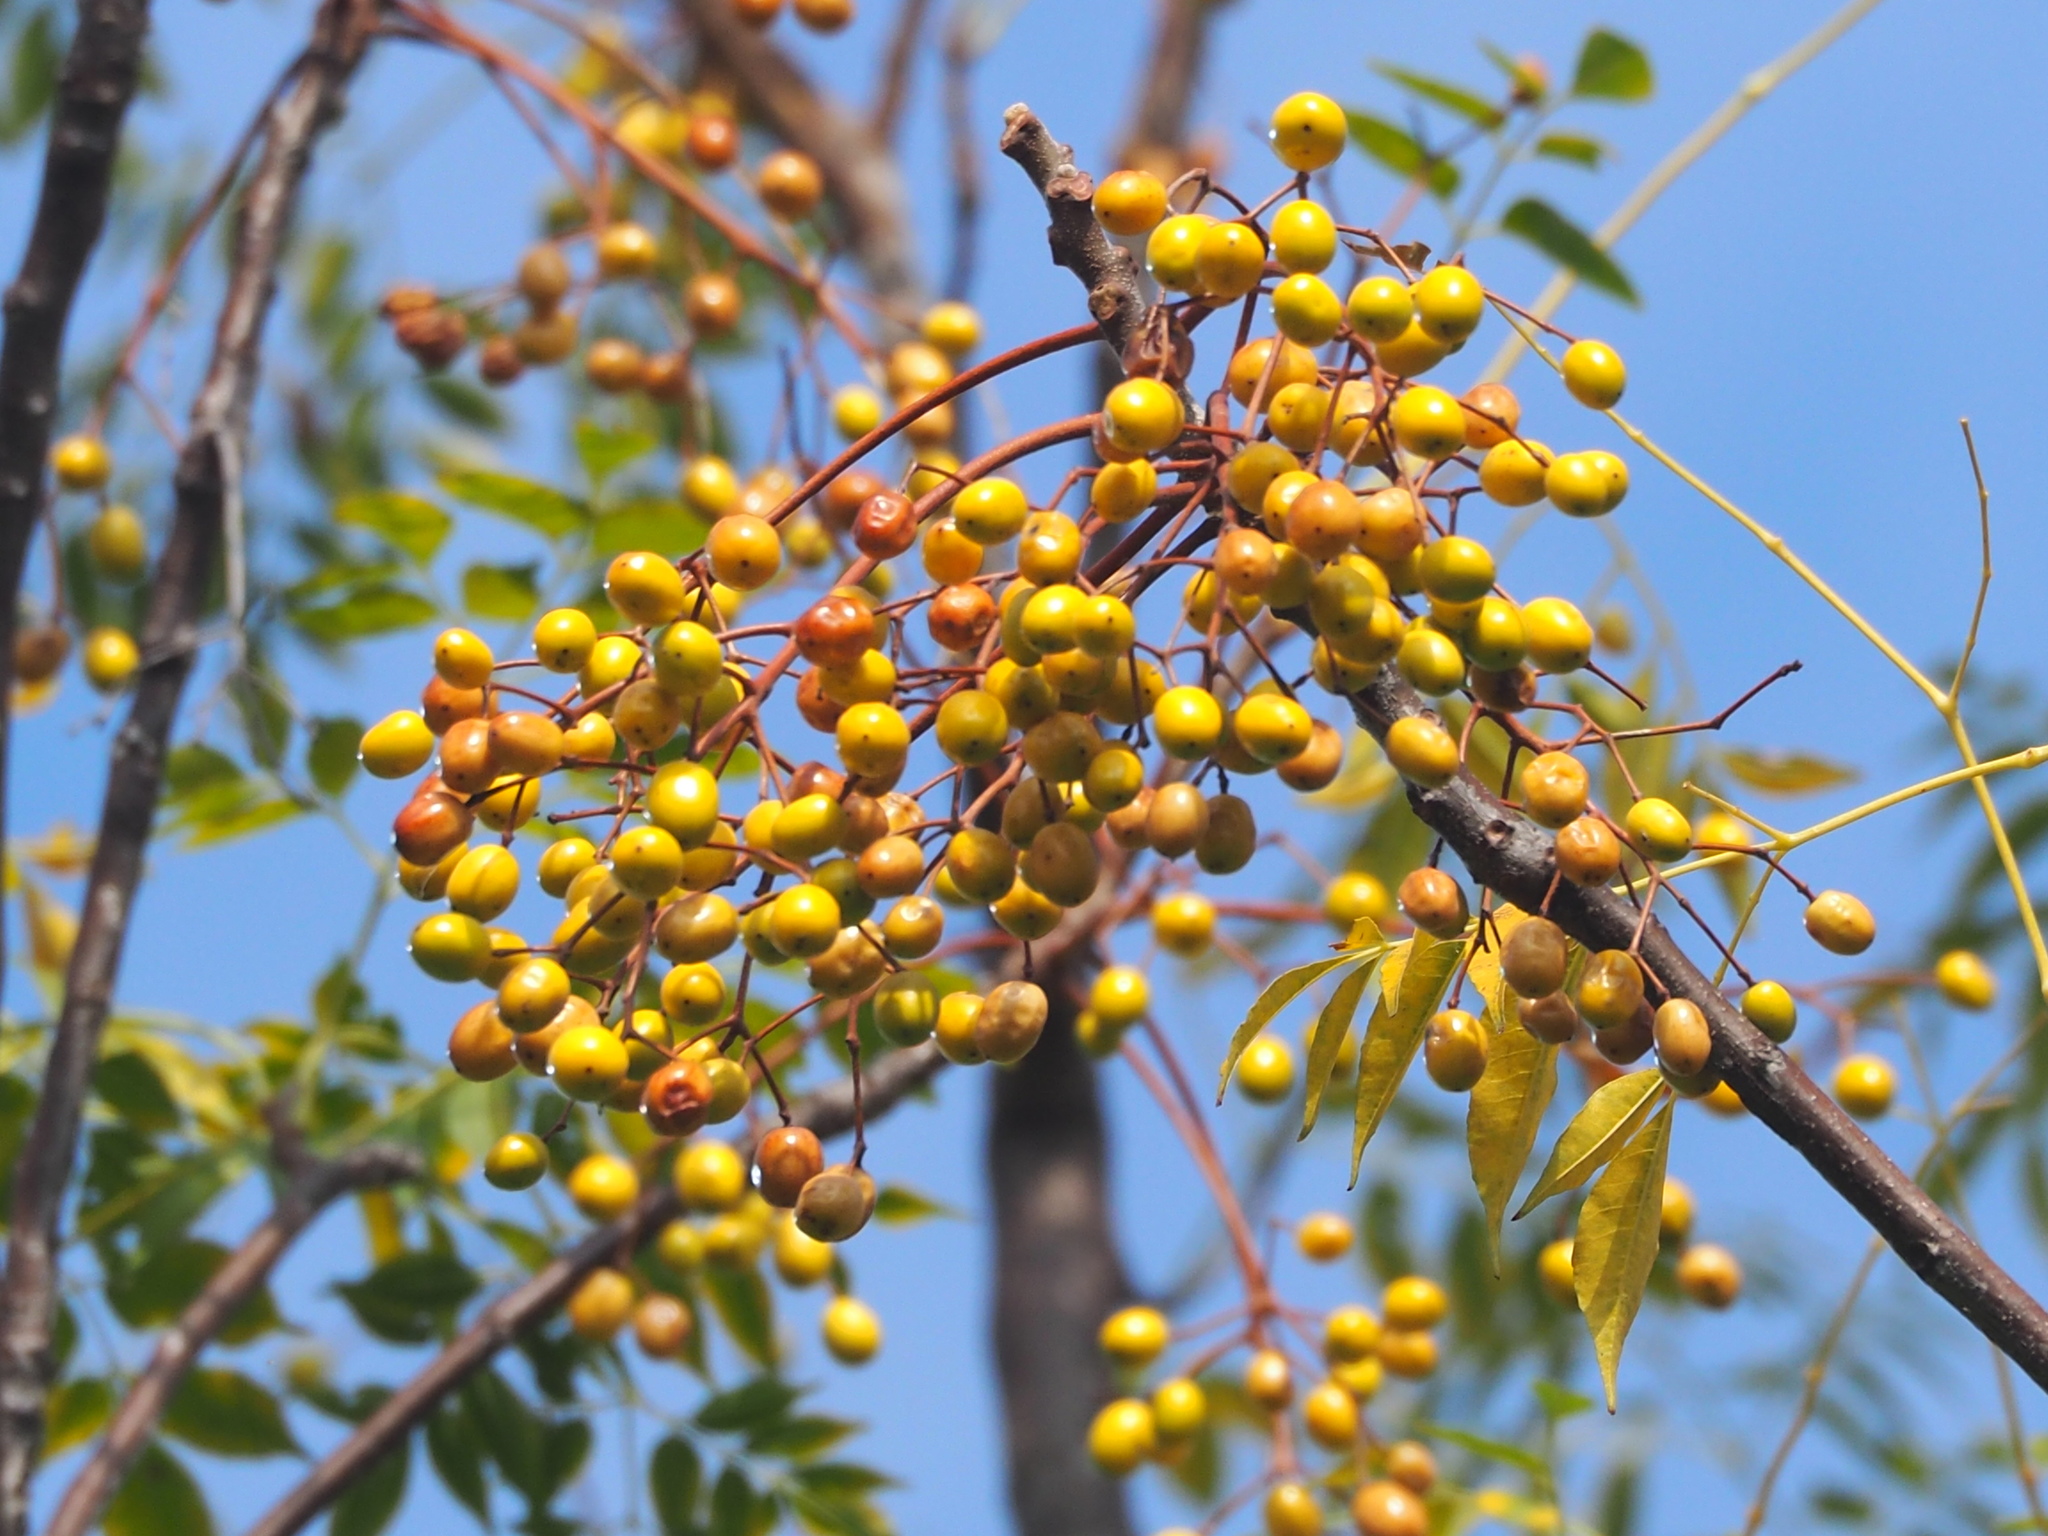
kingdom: Plantae
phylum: Tracheophyta
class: Magnoliopsida
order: Sapindales
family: Meliaceae
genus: Melia
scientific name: Melia azedarach
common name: Chinaberrytree
